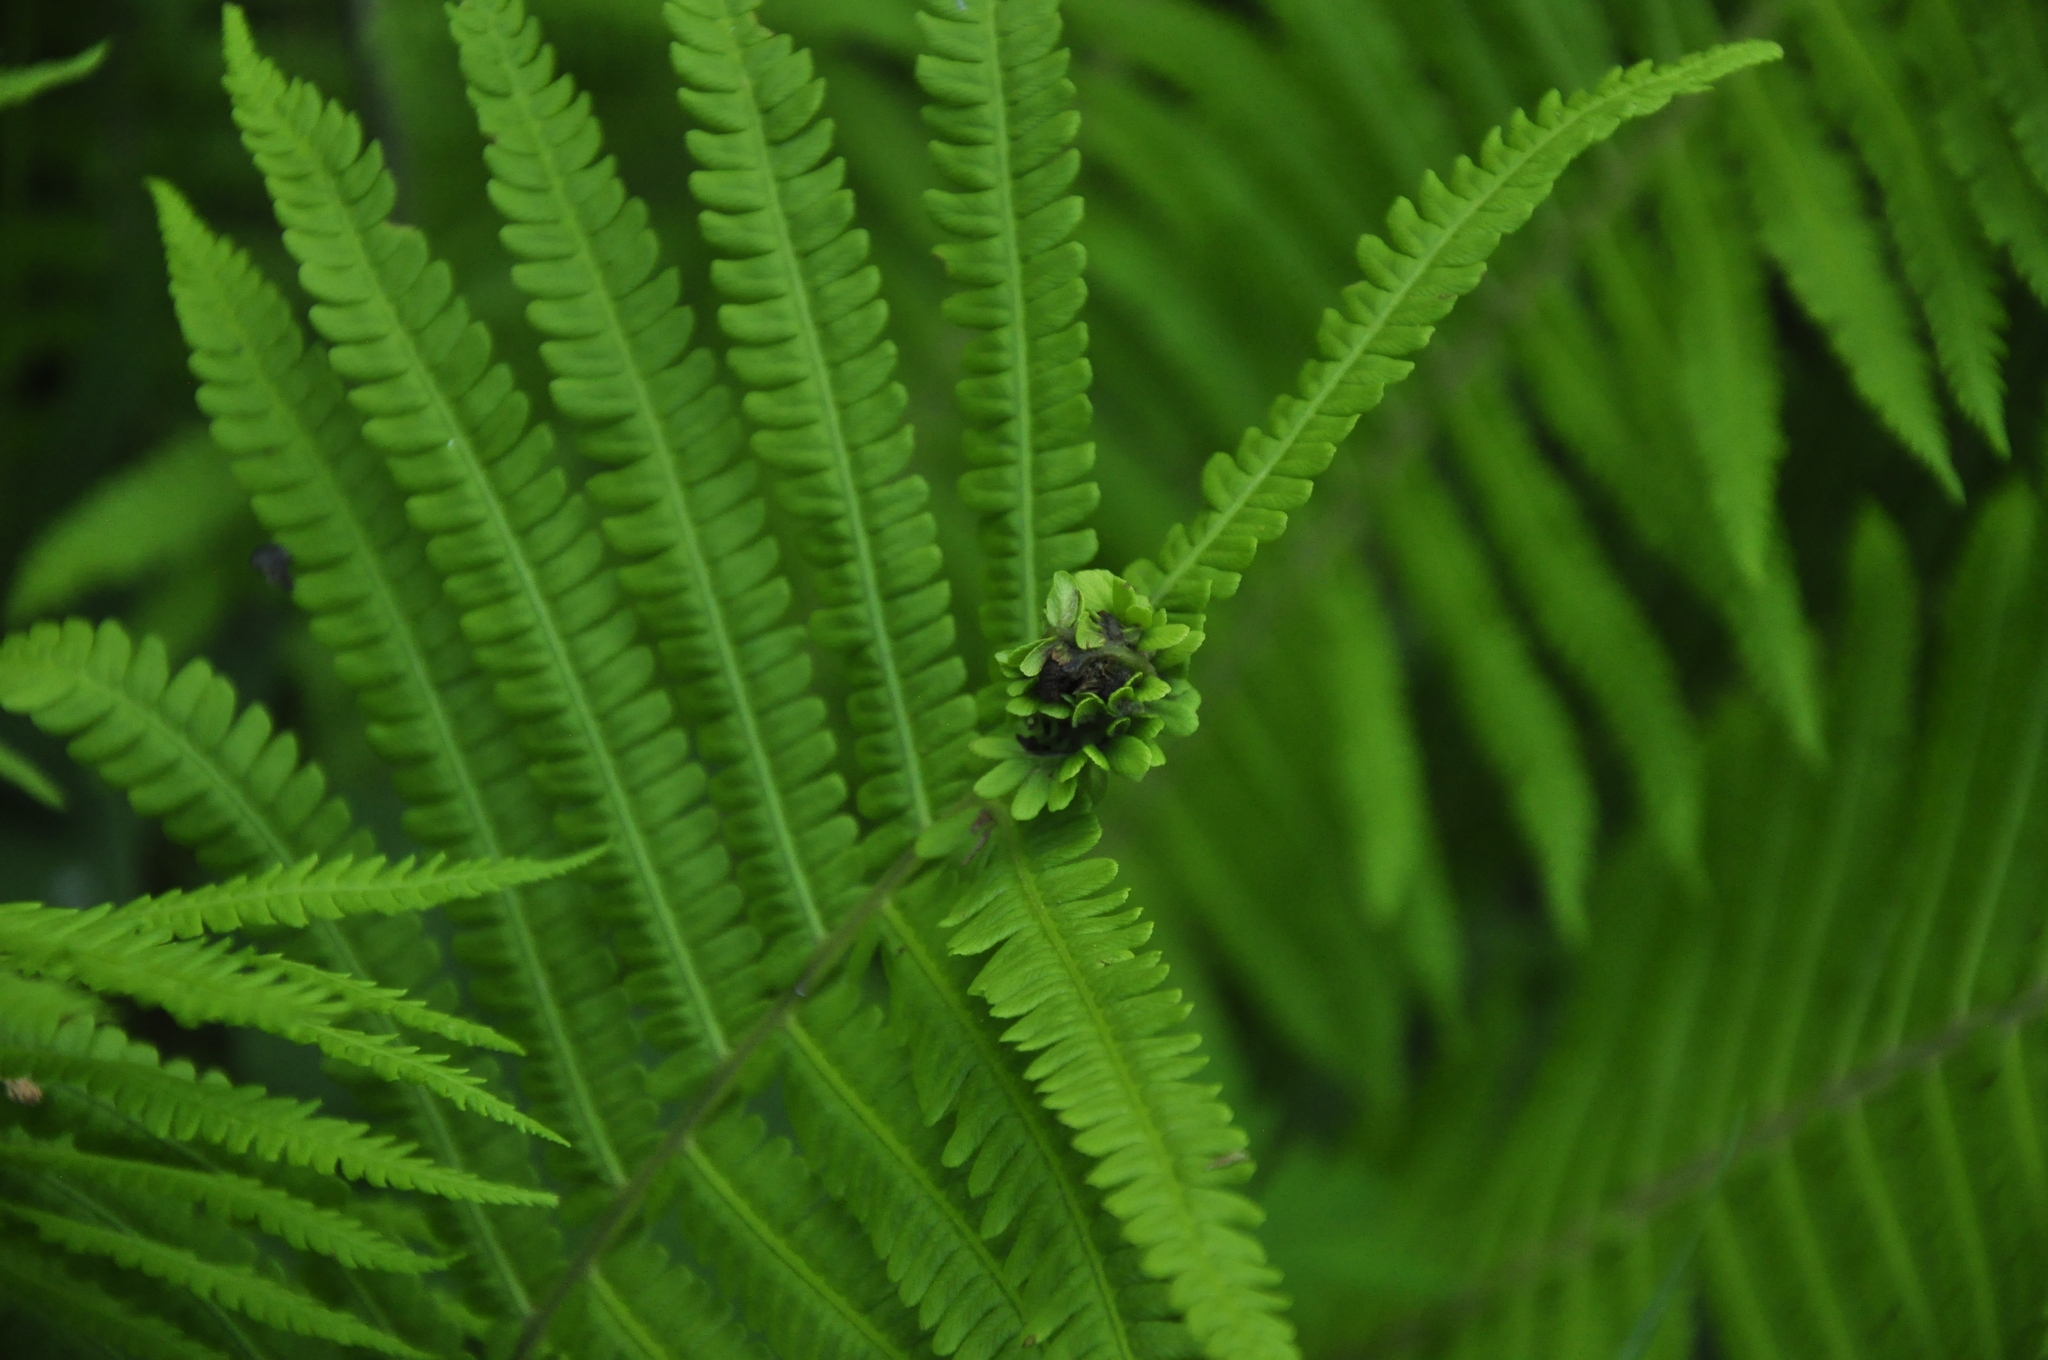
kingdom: Plantae
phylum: Tracheophyta
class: Polypodiopsida
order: Polypodiales
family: Onocleaceae
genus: Matteuccia
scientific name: Matteuccia struthiopteris
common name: Ostrich fern
